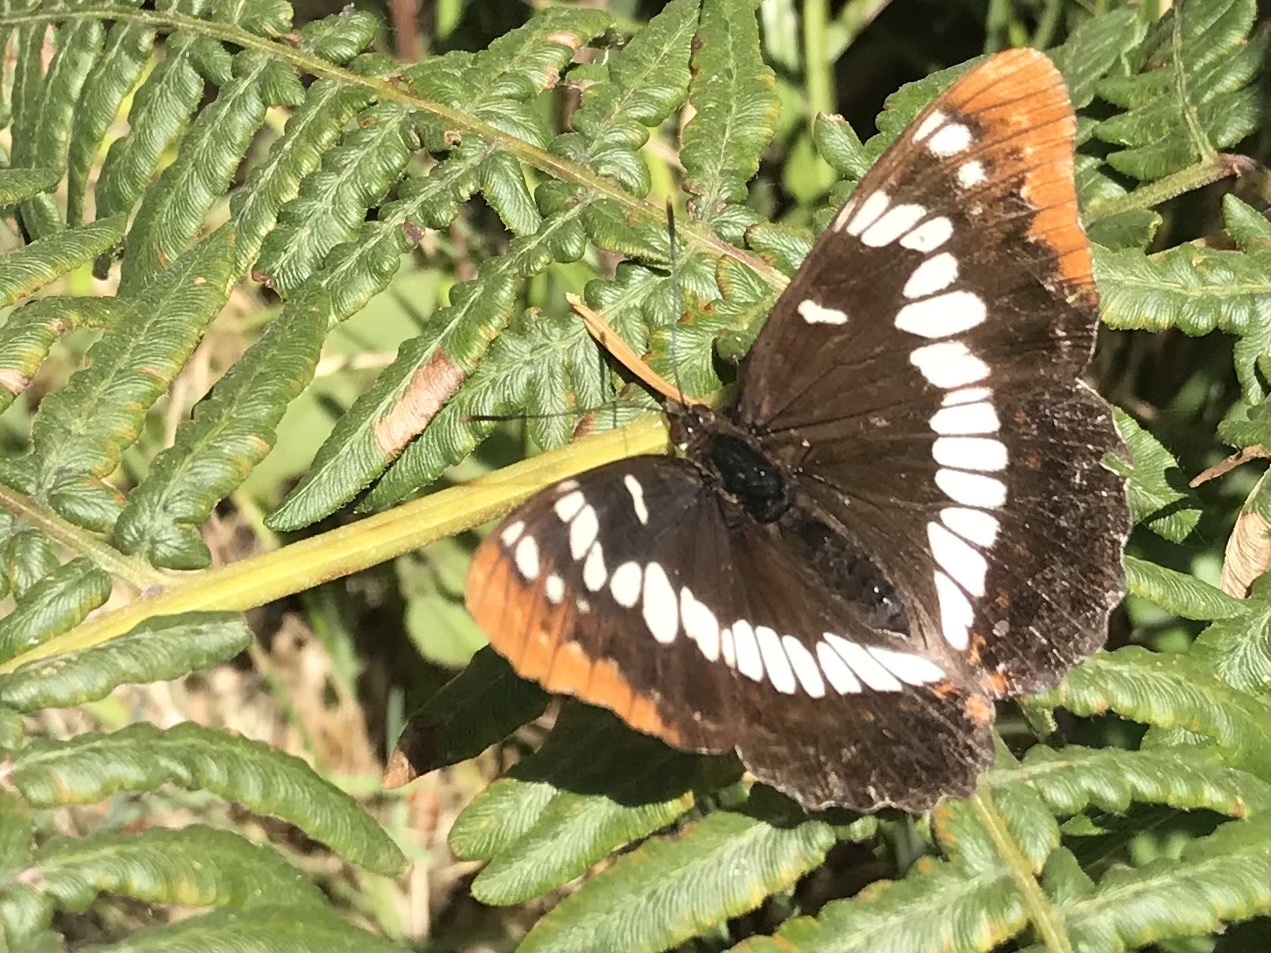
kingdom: Animalia
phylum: Arthropoda
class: Insecta
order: Lepidoptera
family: Nymphalidae
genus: Limenitis
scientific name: Limenitis lorquini
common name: Lorquin's admiral
